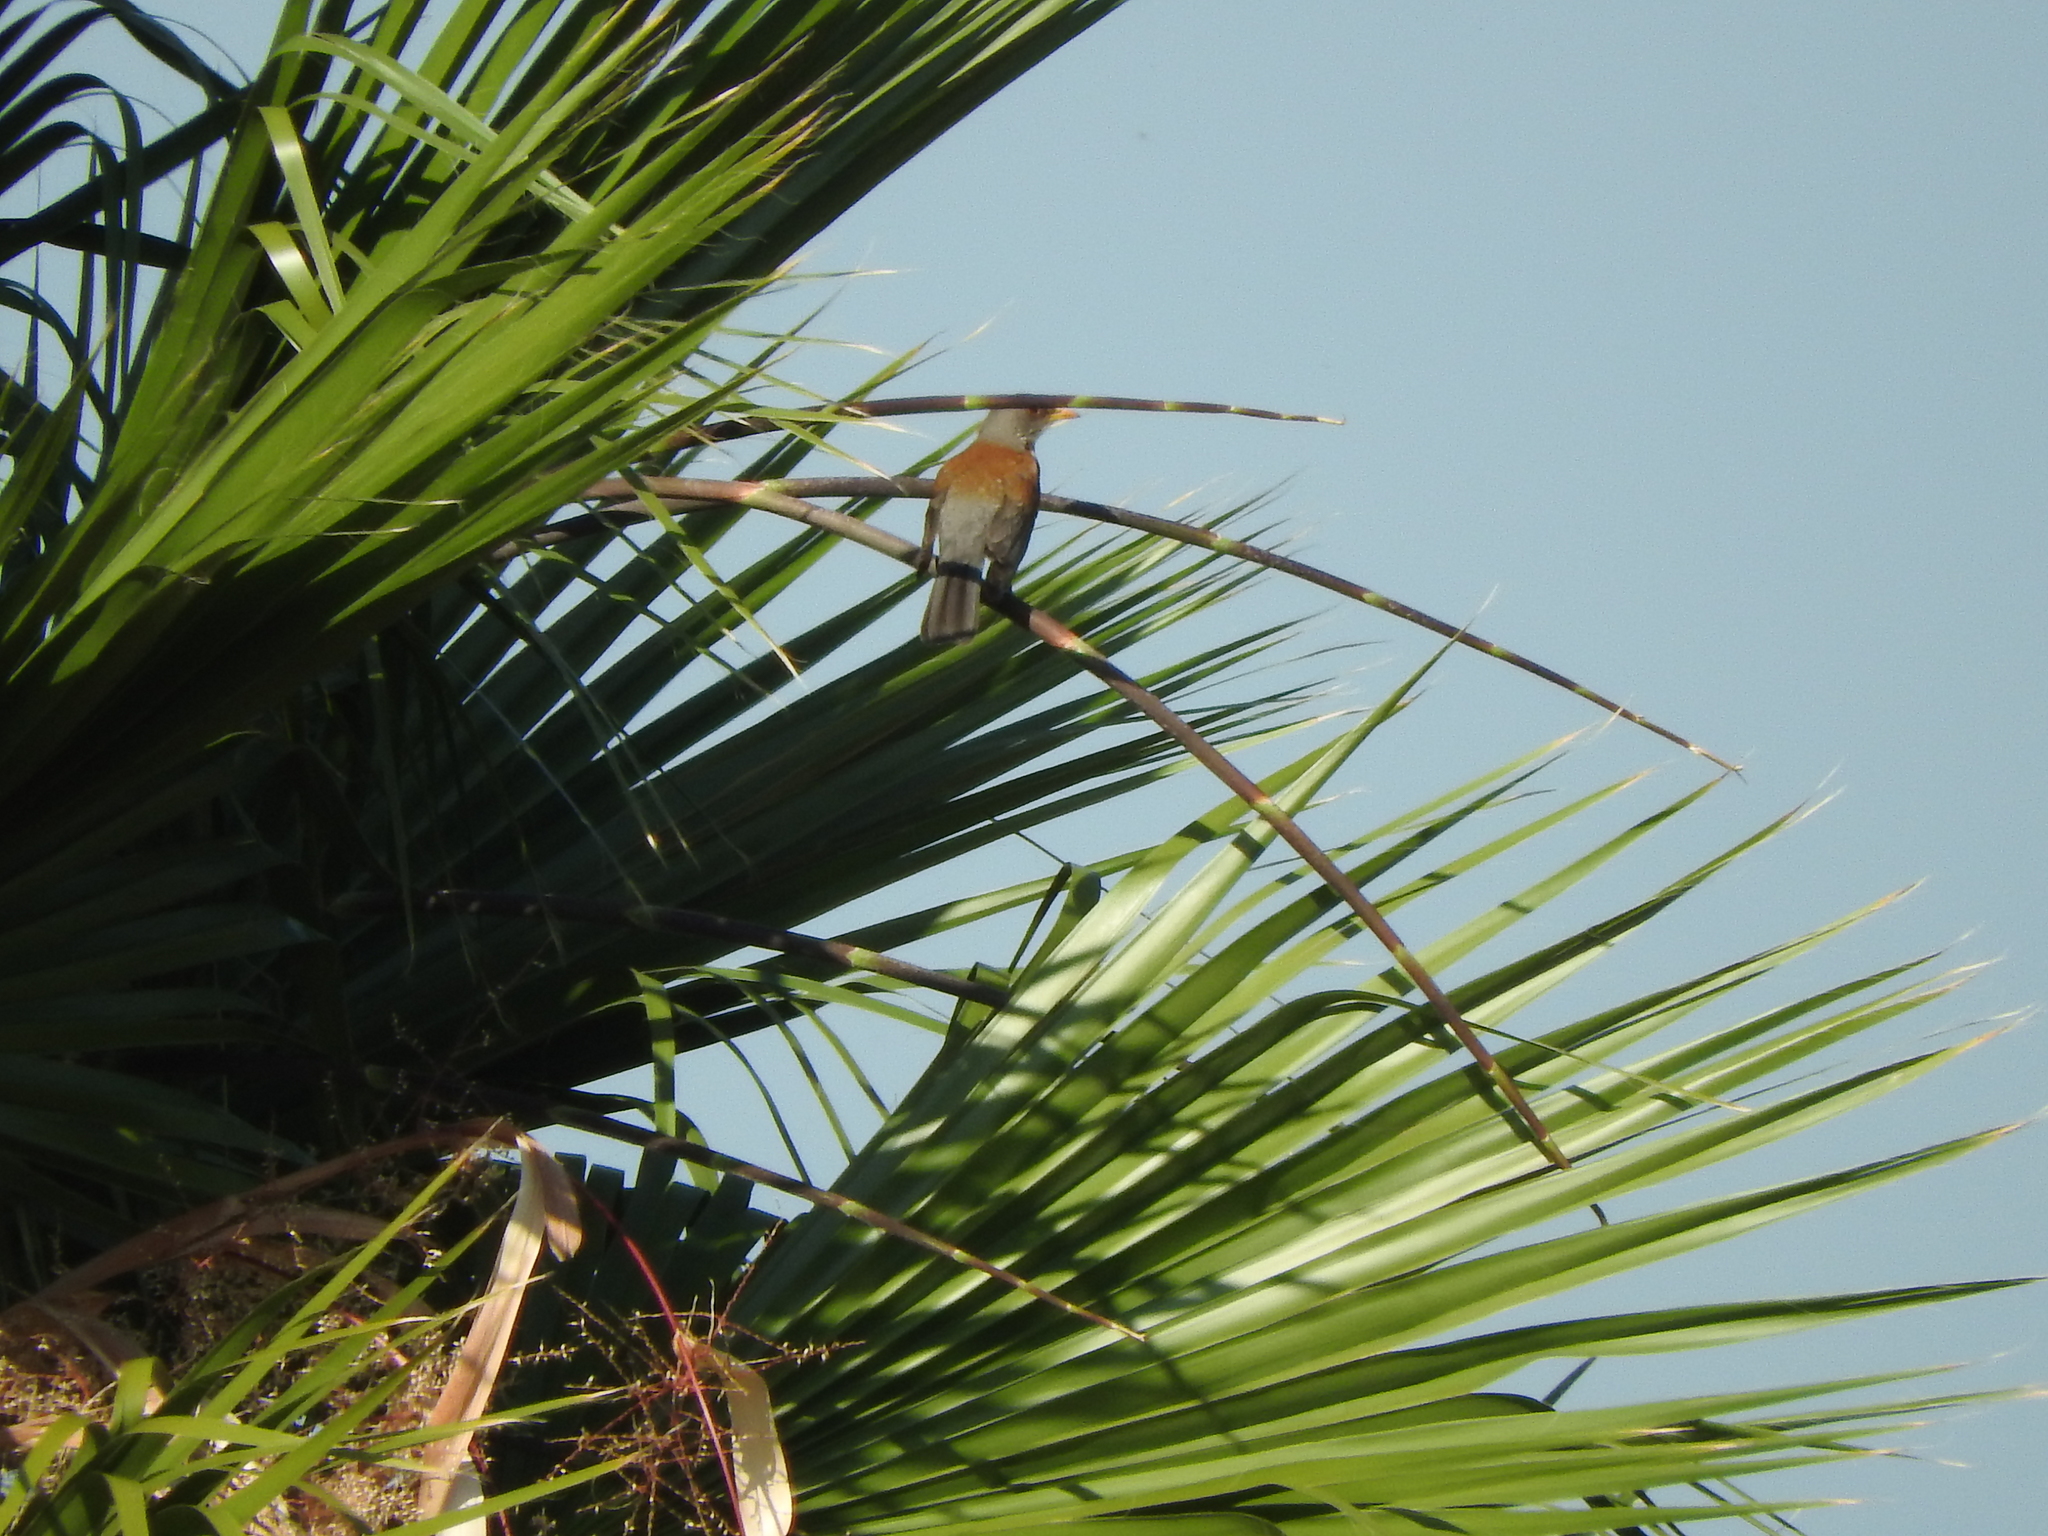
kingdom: Animalia
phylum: Chordata
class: Aves
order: Passeriformes
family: Turdidae
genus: Turdus
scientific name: Turdus rufopalliatus
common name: Rufous-backed robin
